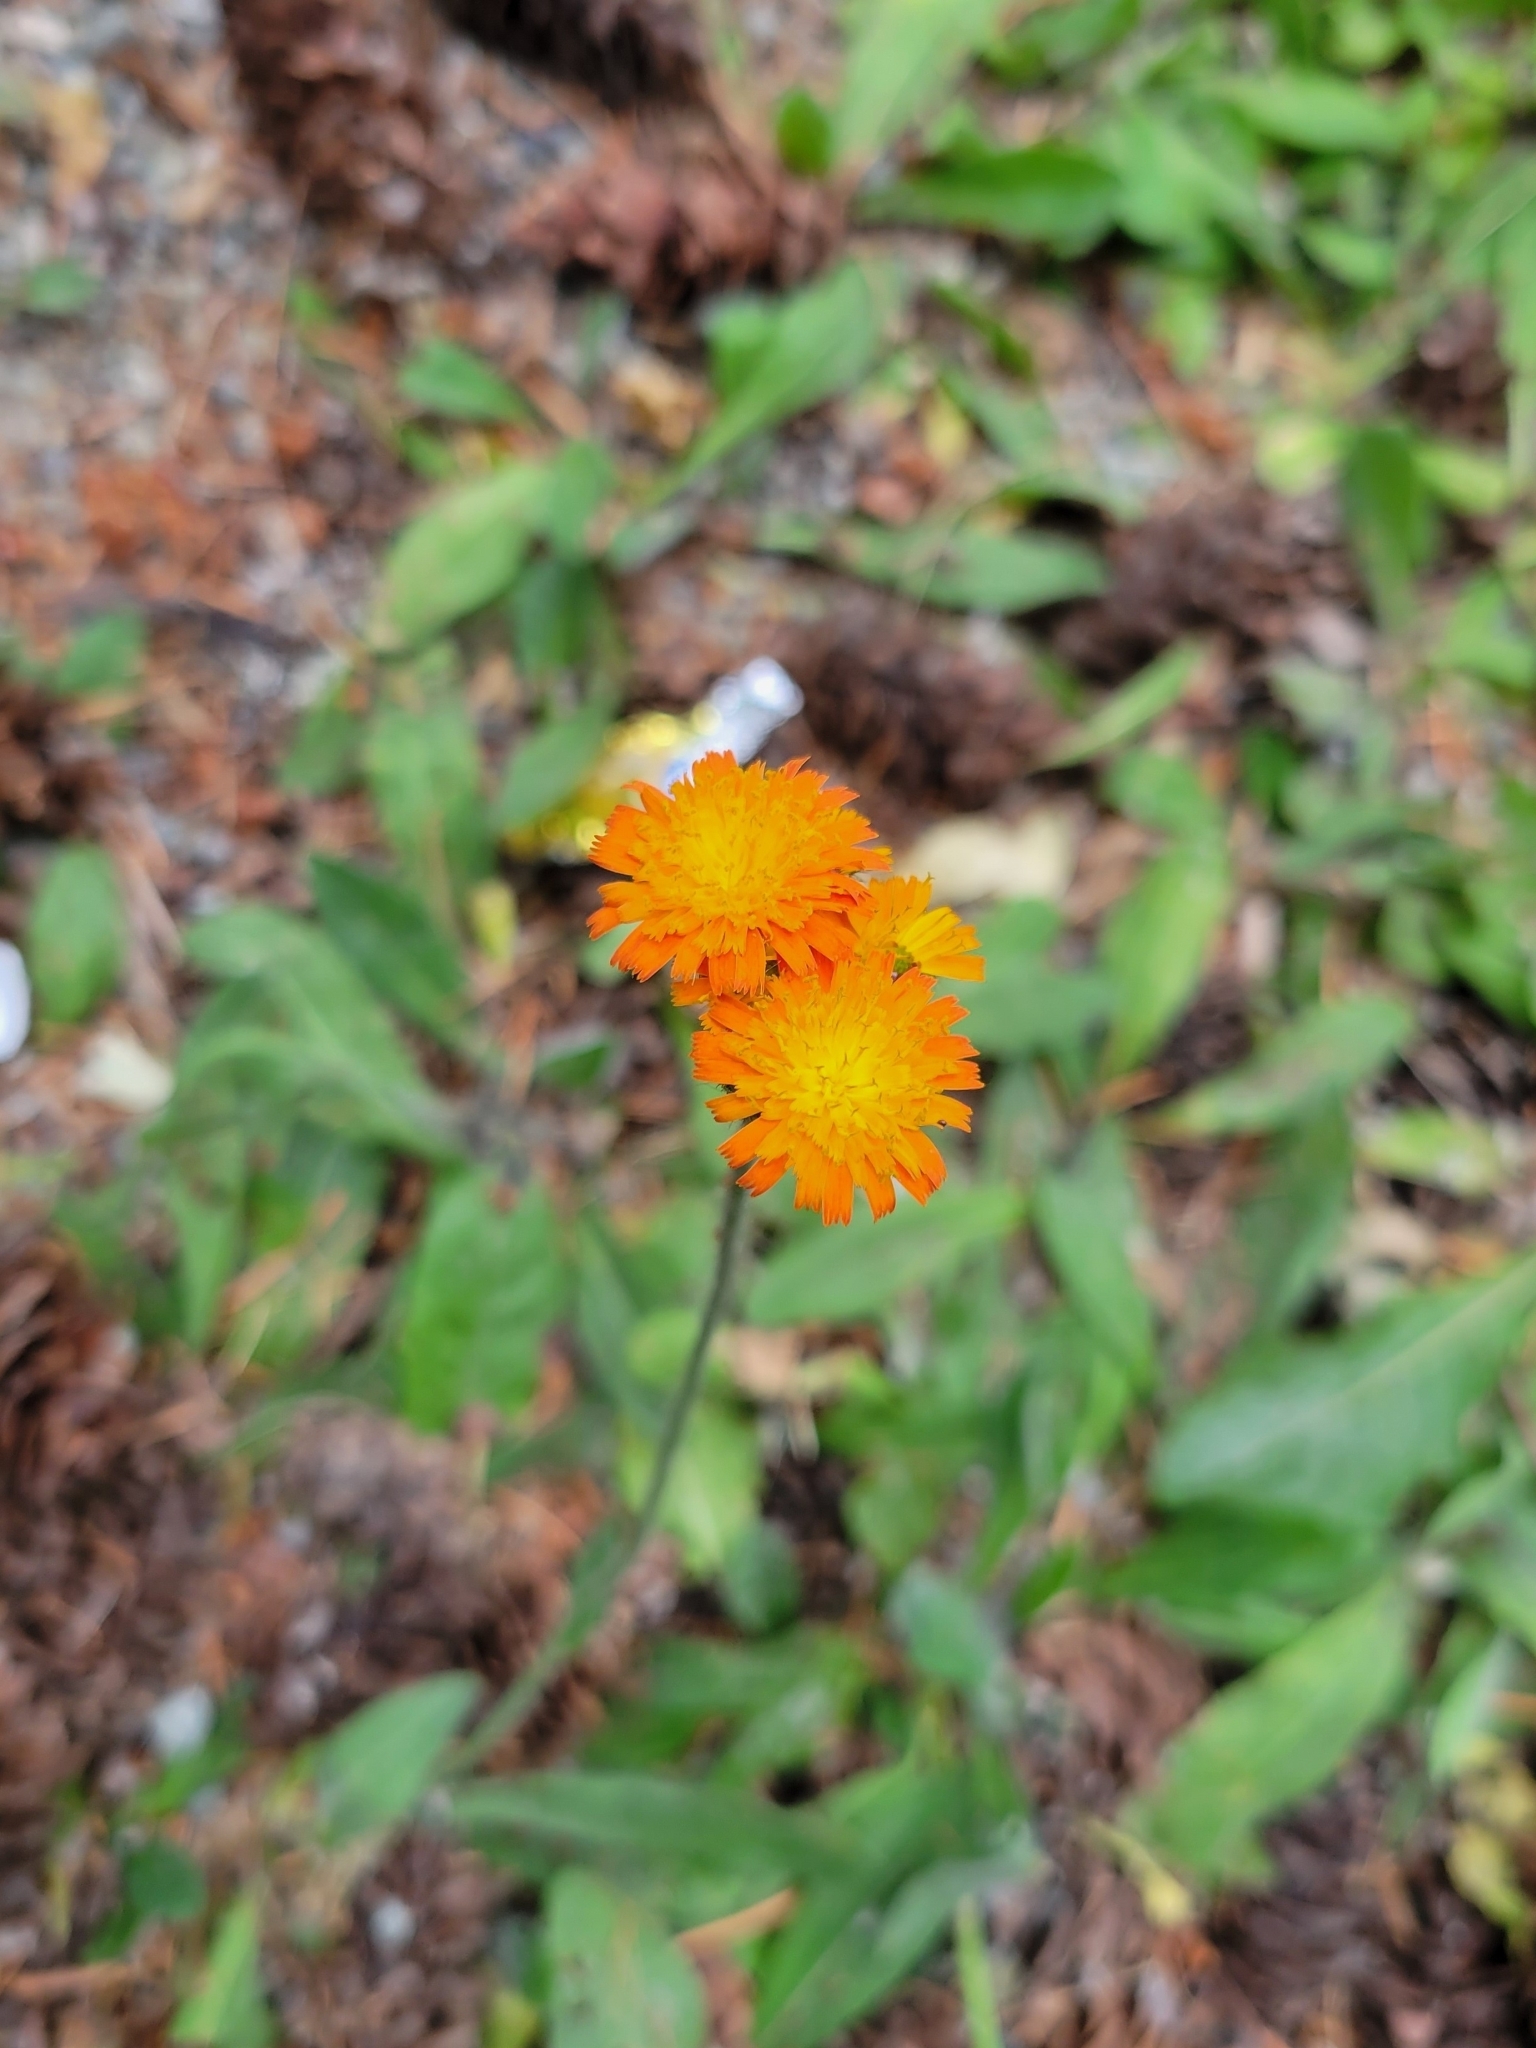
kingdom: Plantae
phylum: Tracheophyta
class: Magnoliopsida
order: Asterales
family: Asteraceae
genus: Pilosella
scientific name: Pilosella aurantiaca
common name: Fox-and-cubs
